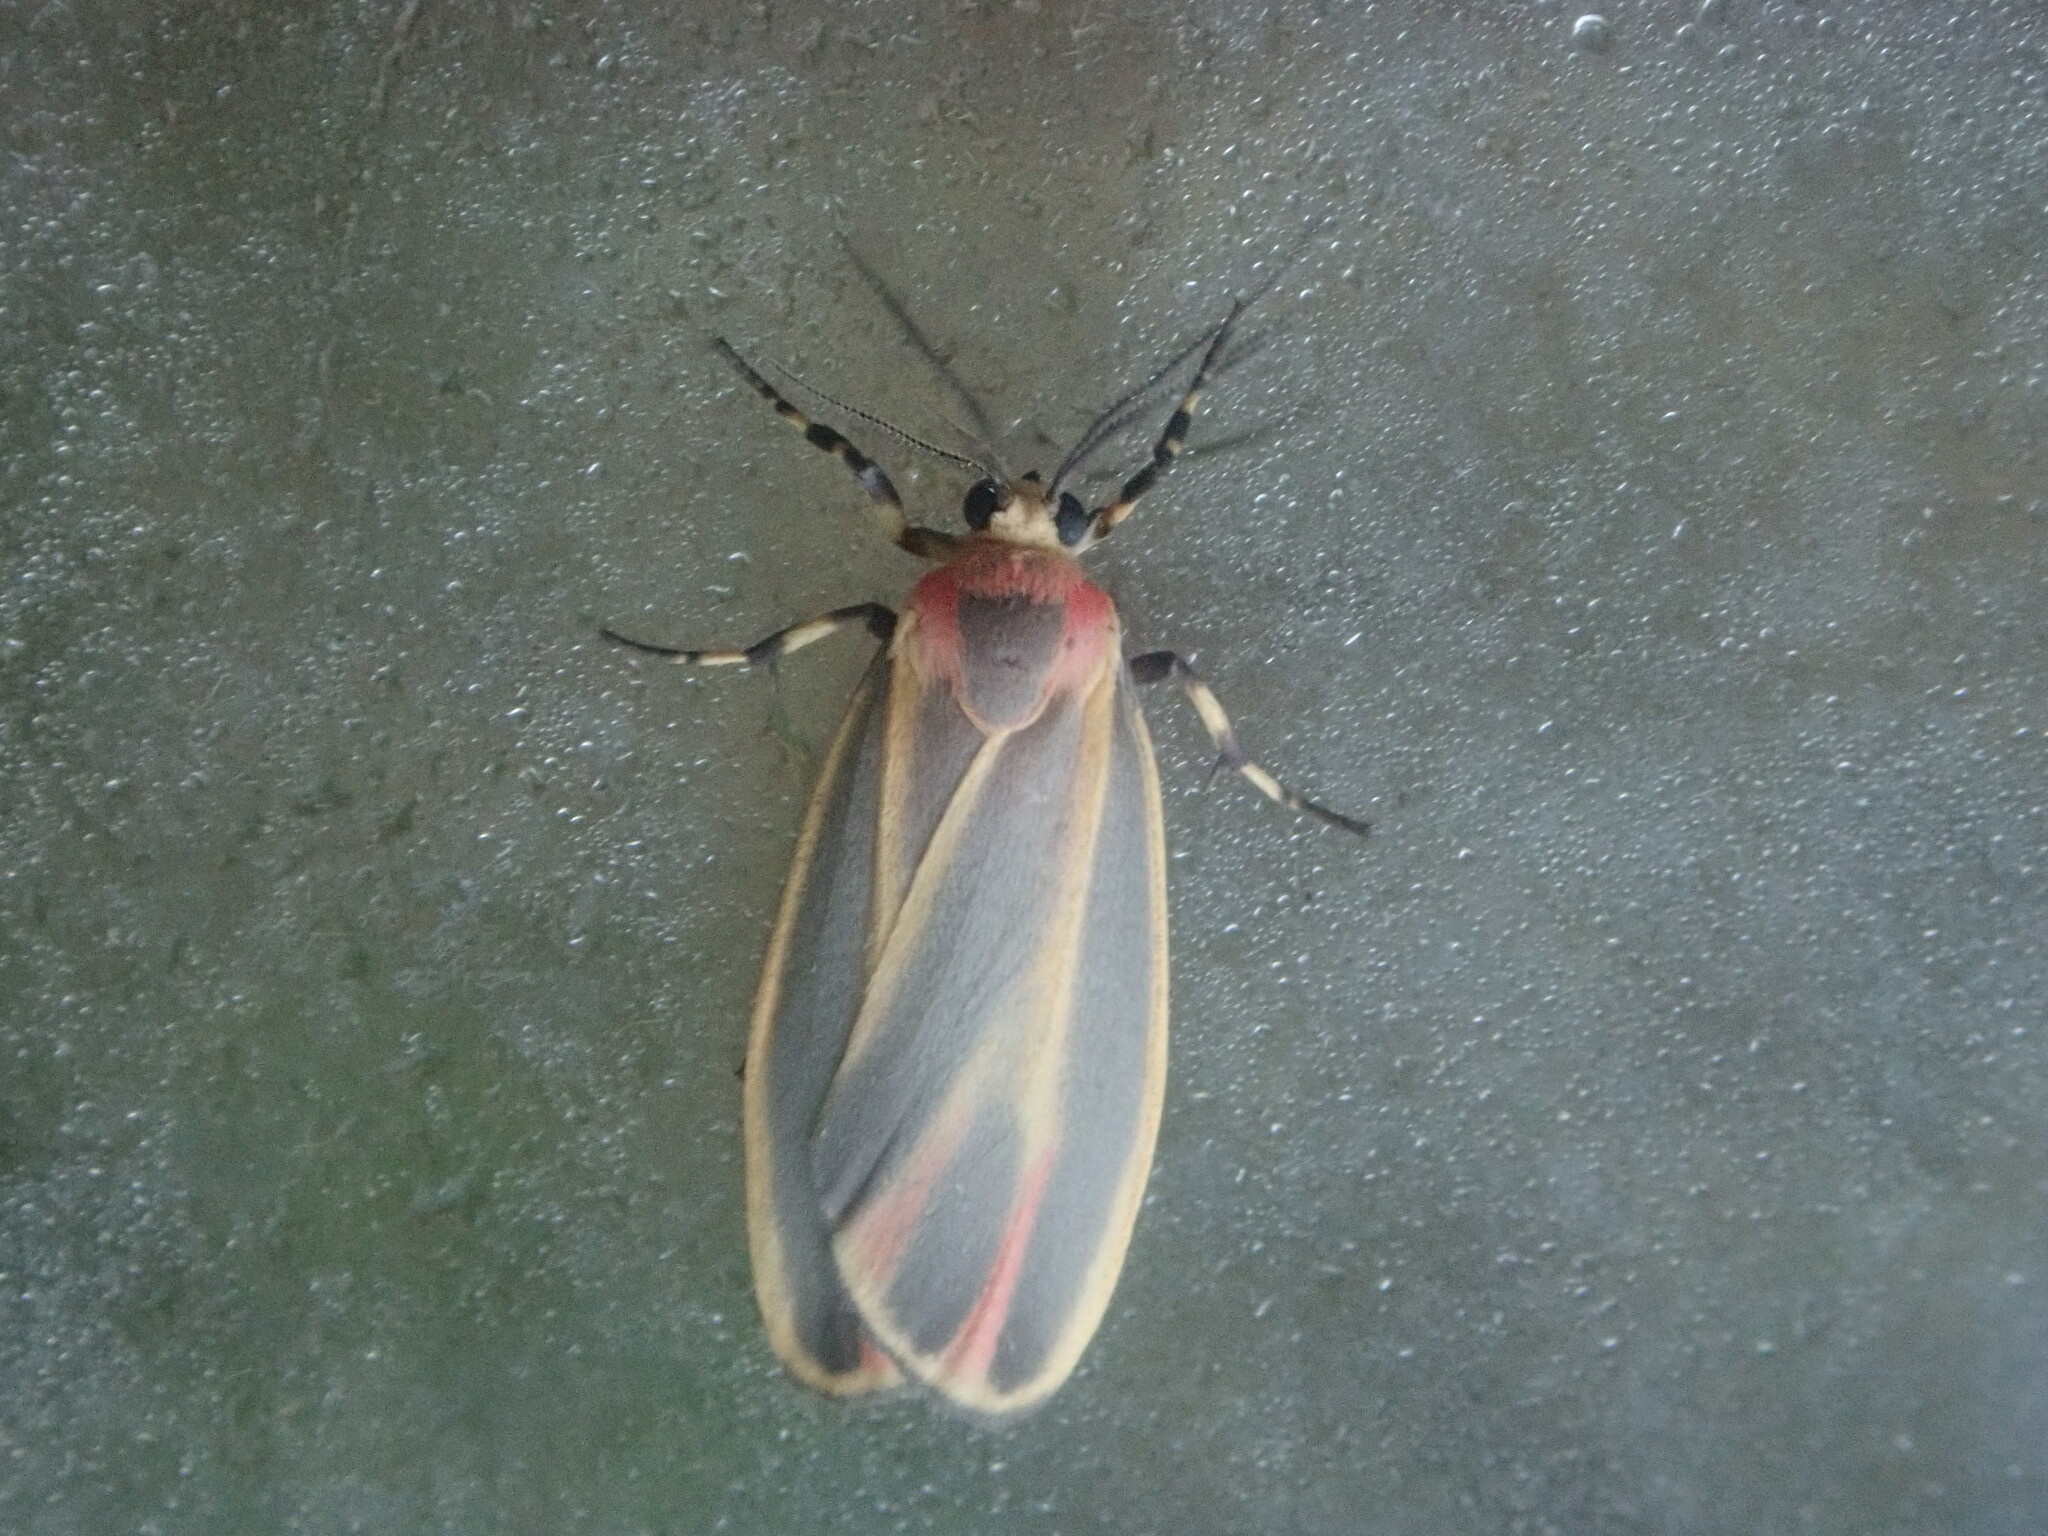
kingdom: Animalia
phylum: Arthropoda
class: Insecta
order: Lepidoptera
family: Erebidae
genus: Hypoprepia
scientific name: Hypoprepia fucosa
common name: Painted lichen moth
